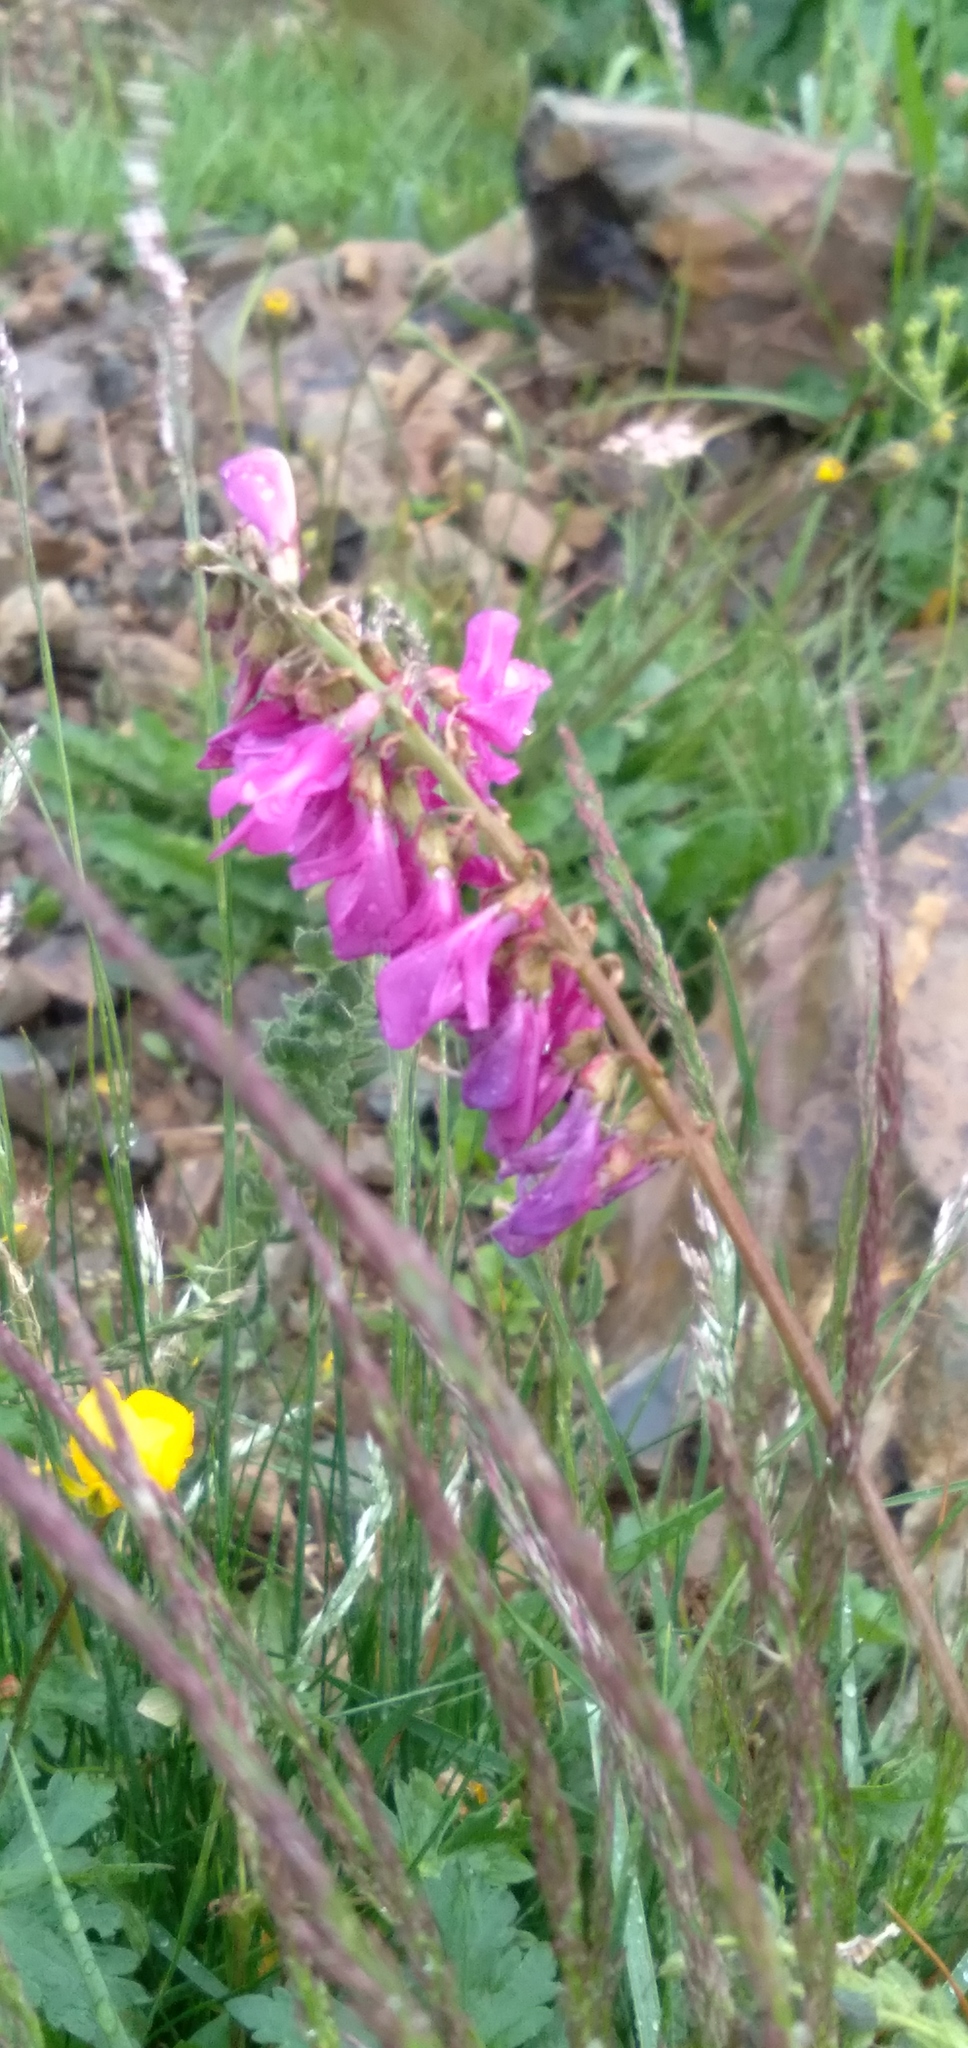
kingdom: Plantae
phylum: Tracheophyta
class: Magnoliopsida
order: Fabales
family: Fabaceae
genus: Hedysarum
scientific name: Hedysarum caucasicum
